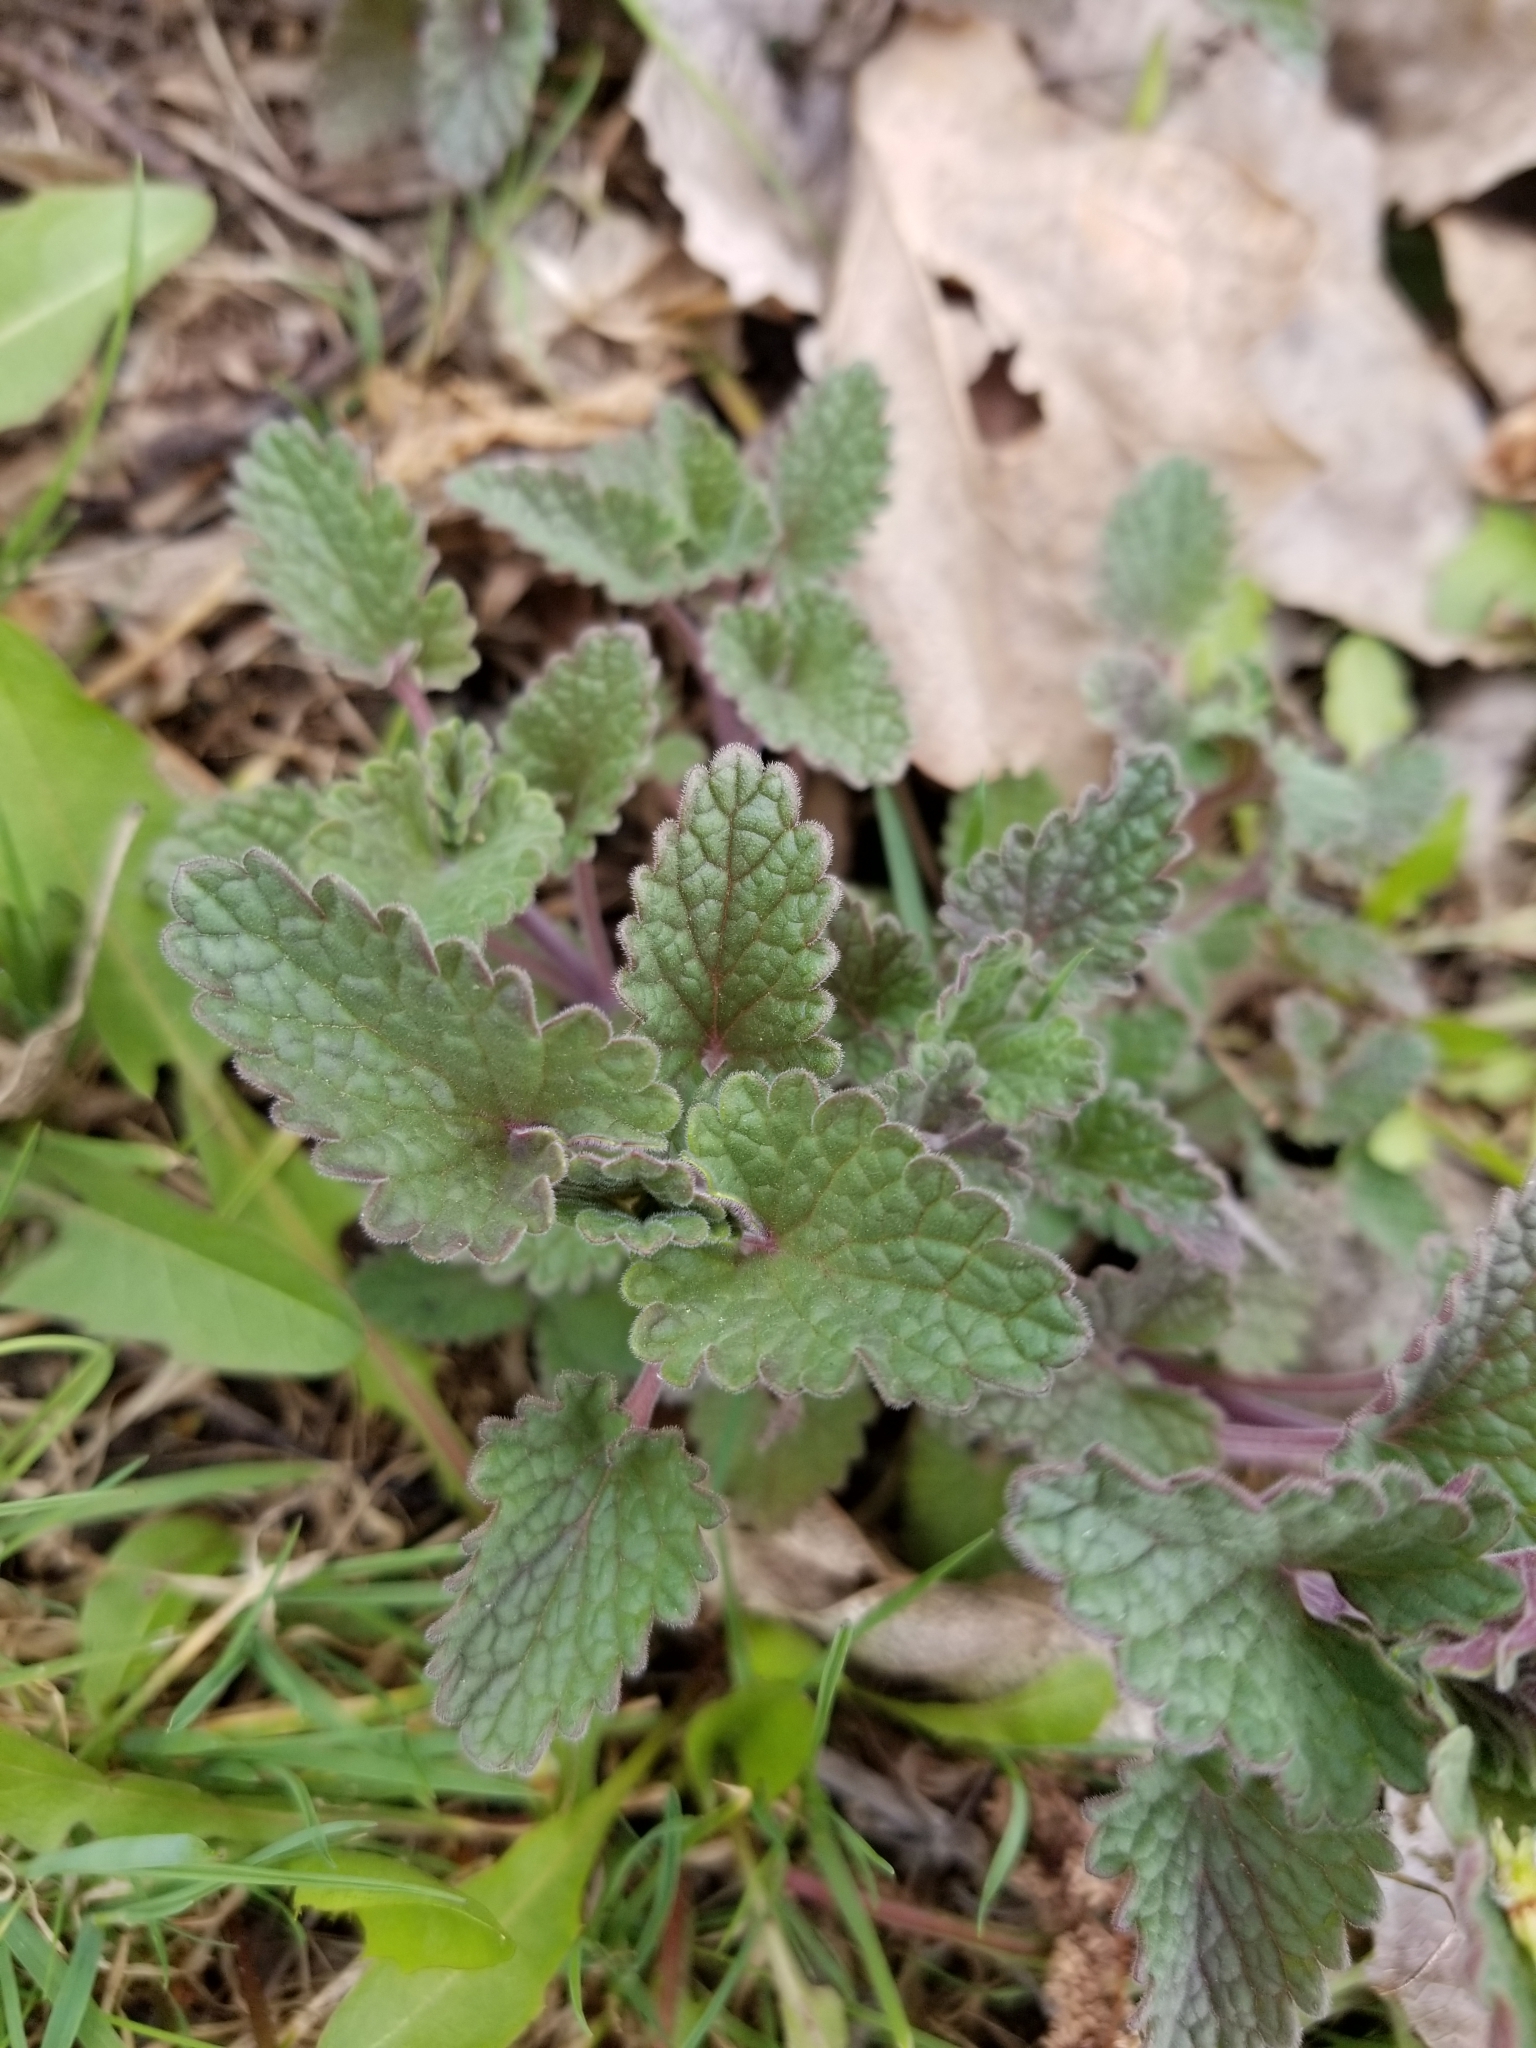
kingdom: Plantae
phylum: Tracheophyta
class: Magnoliopsida
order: Lamiales
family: Lamiaceae
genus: Nepeta
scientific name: Nepeta cataria
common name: Catnip
